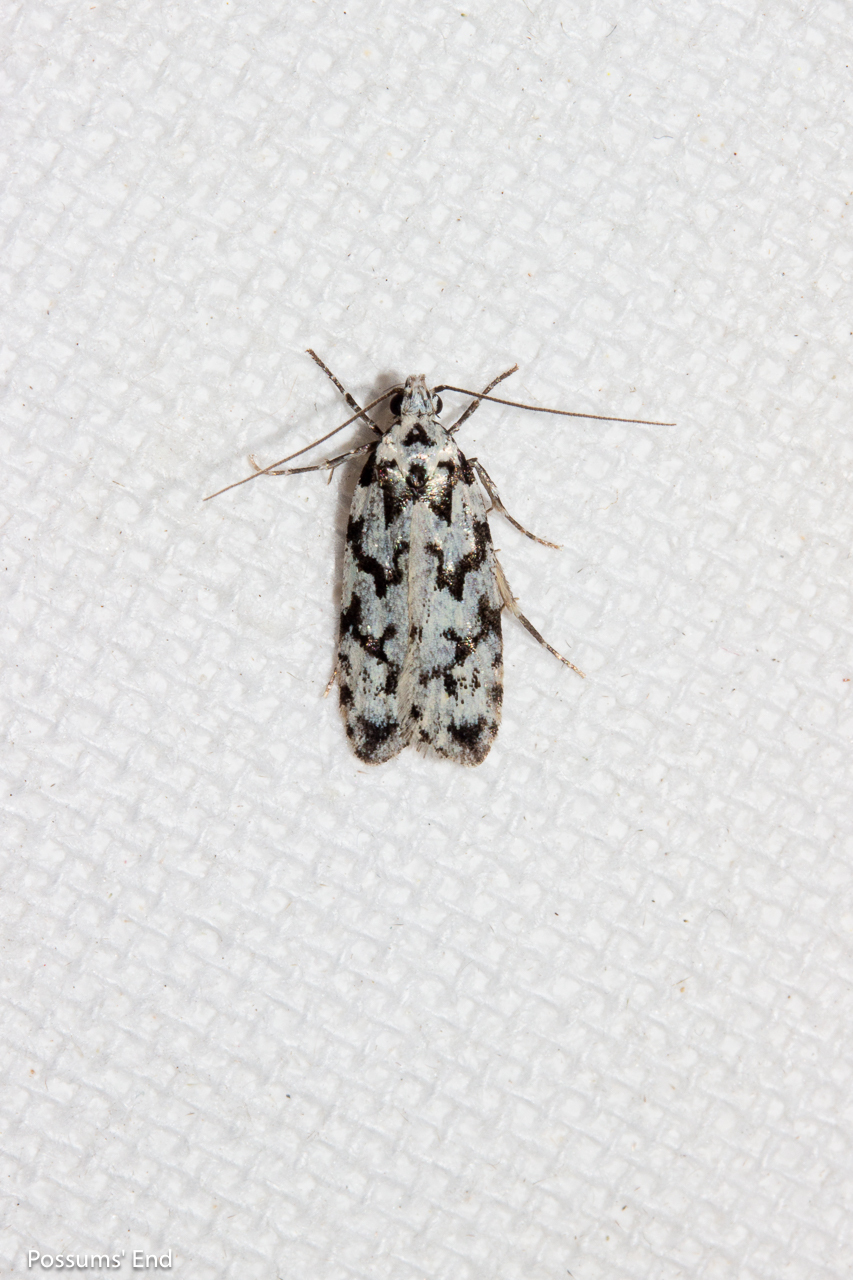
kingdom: Animalia
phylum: Arthropoda
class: Insecta
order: Lepidoptera
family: Oecophoridae
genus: Izatha
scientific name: Izatha katadiktya
